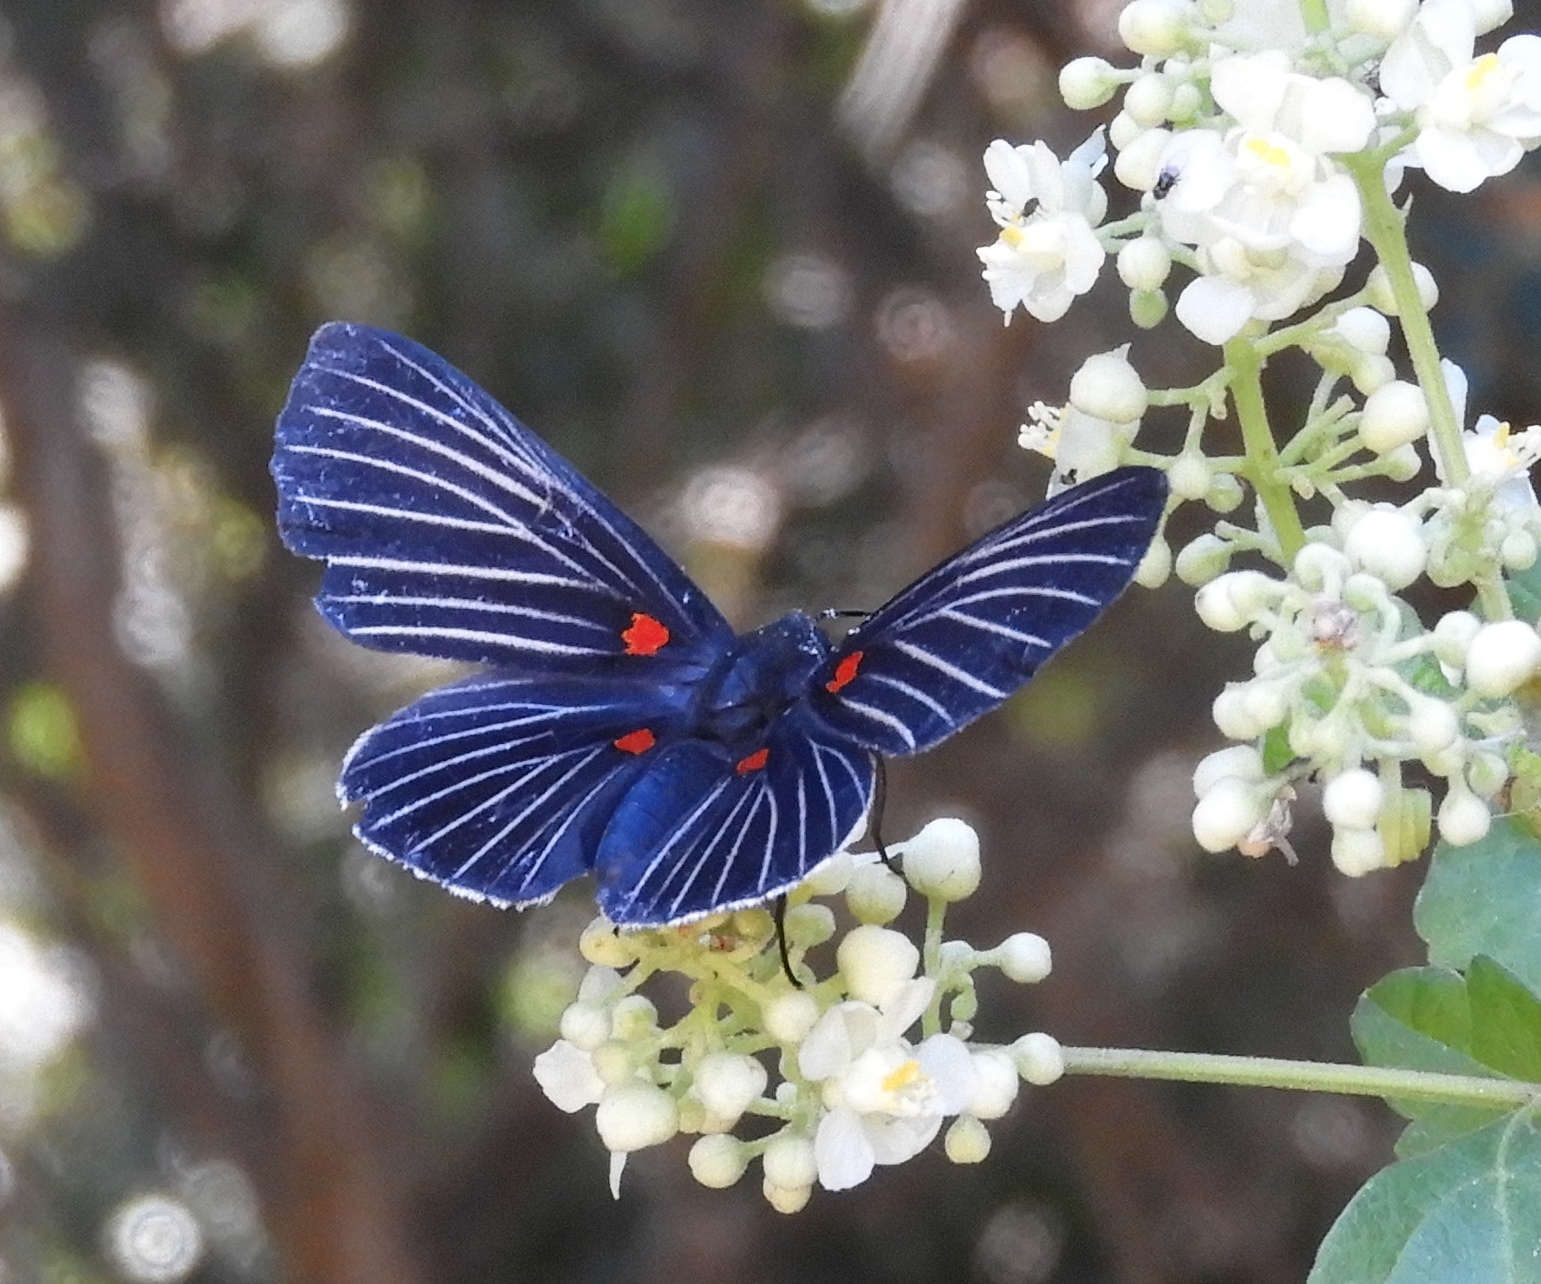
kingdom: Animalia
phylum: Arthropoda
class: Insecta
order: Lepidoptera
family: Lycaenidae
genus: Melanis
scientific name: Melanis
